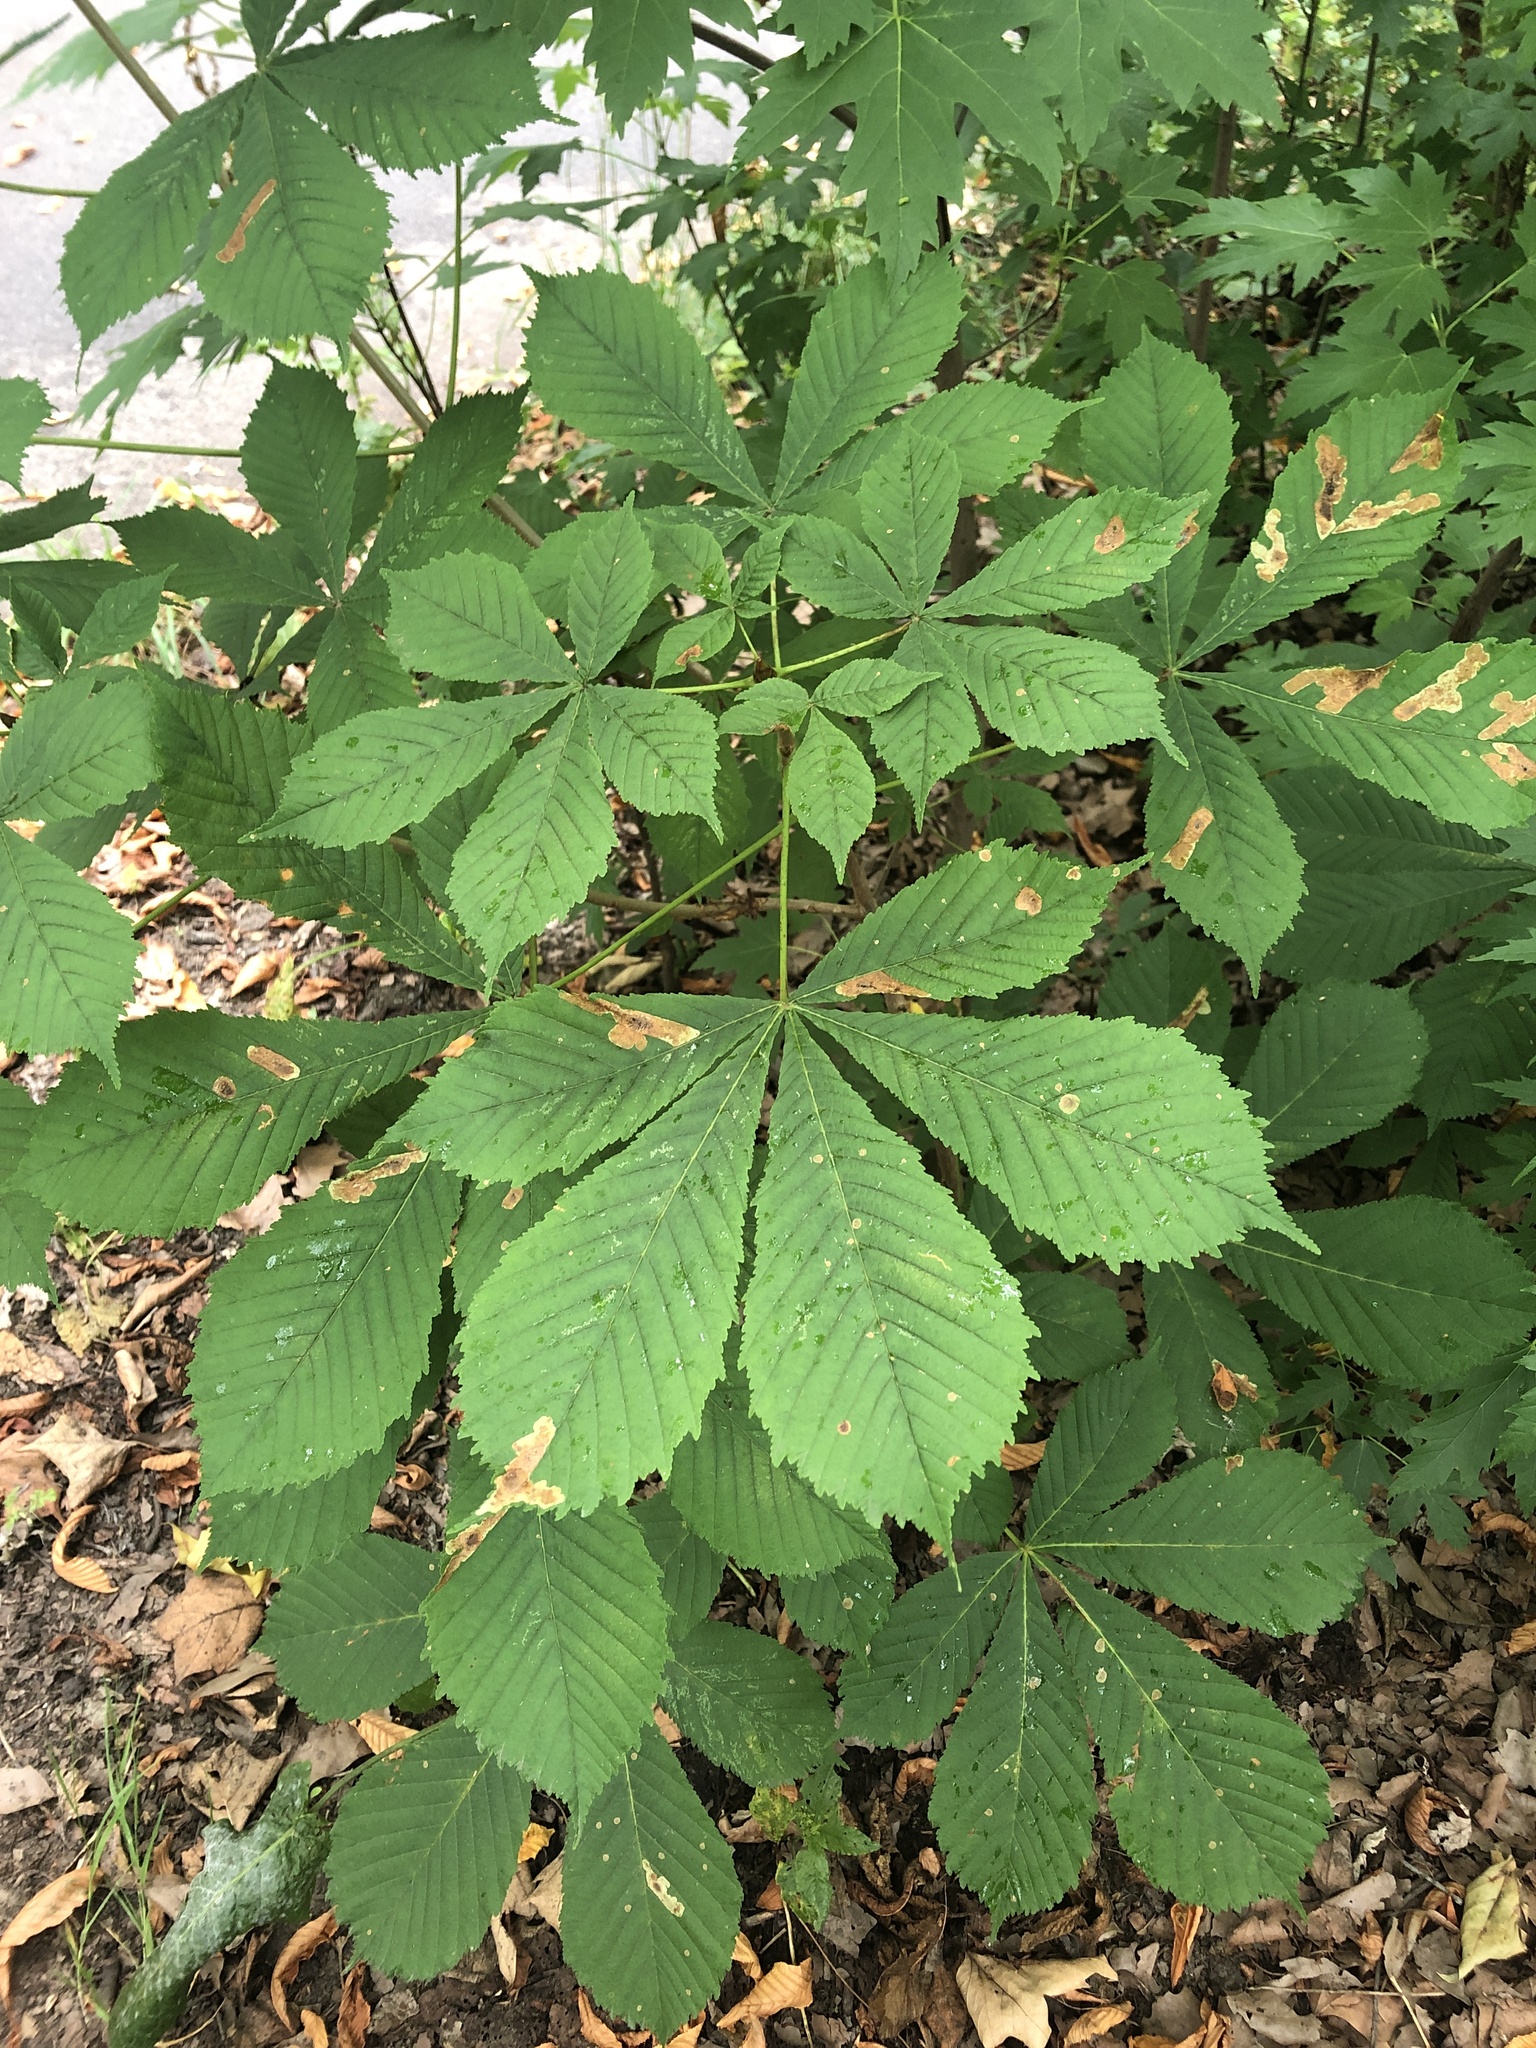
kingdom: Plantae
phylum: Tracheophyta
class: Magnoliopsida
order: Sapindales
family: Sapindaceae
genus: Aesculus
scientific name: Aesculus hippocastanum
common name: Horse-chestnut
